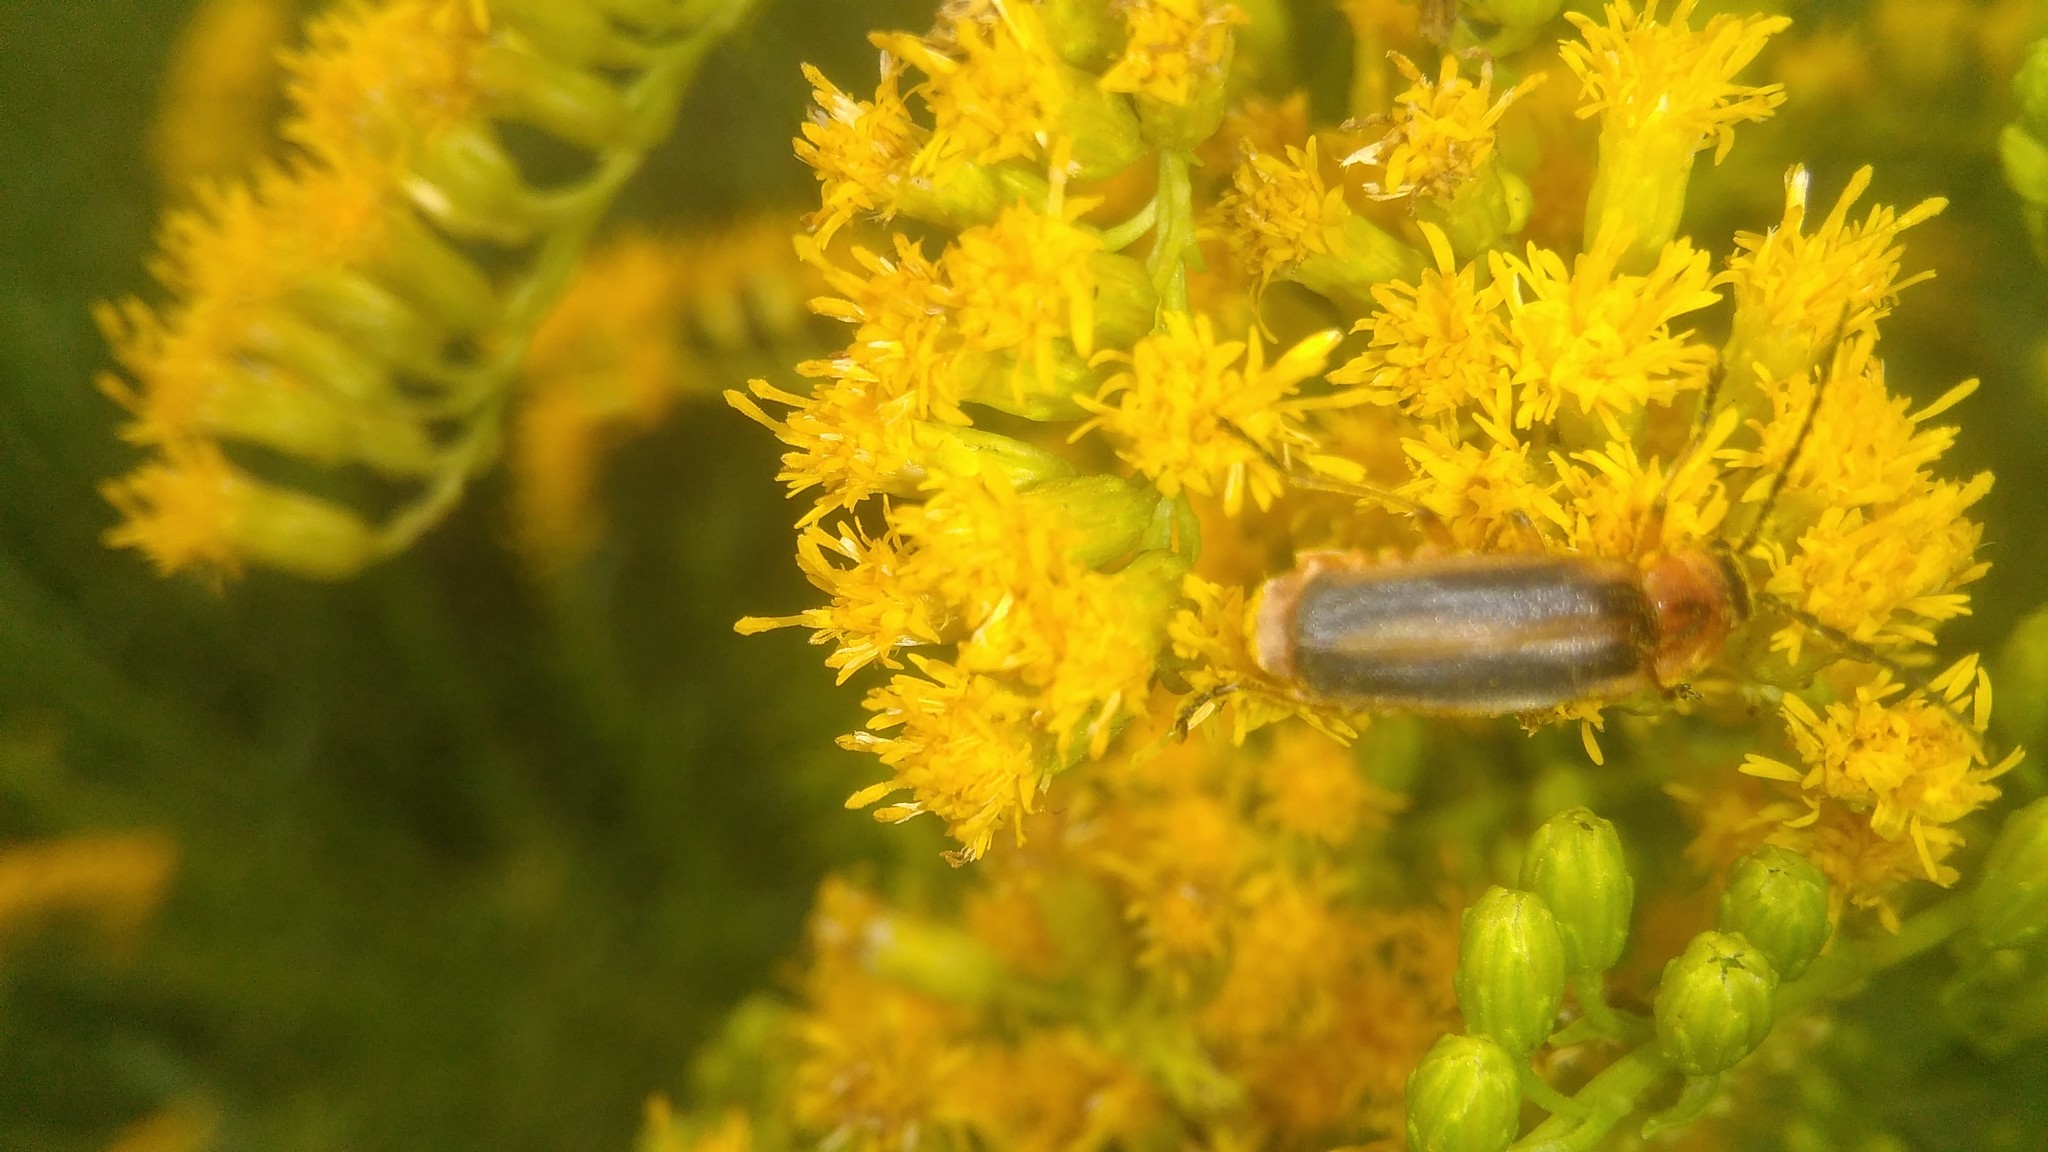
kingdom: Animalia
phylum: Arthropoda
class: Insecta
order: Coleoptera
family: Cantharidae
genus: Discodon
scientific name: Discodon
